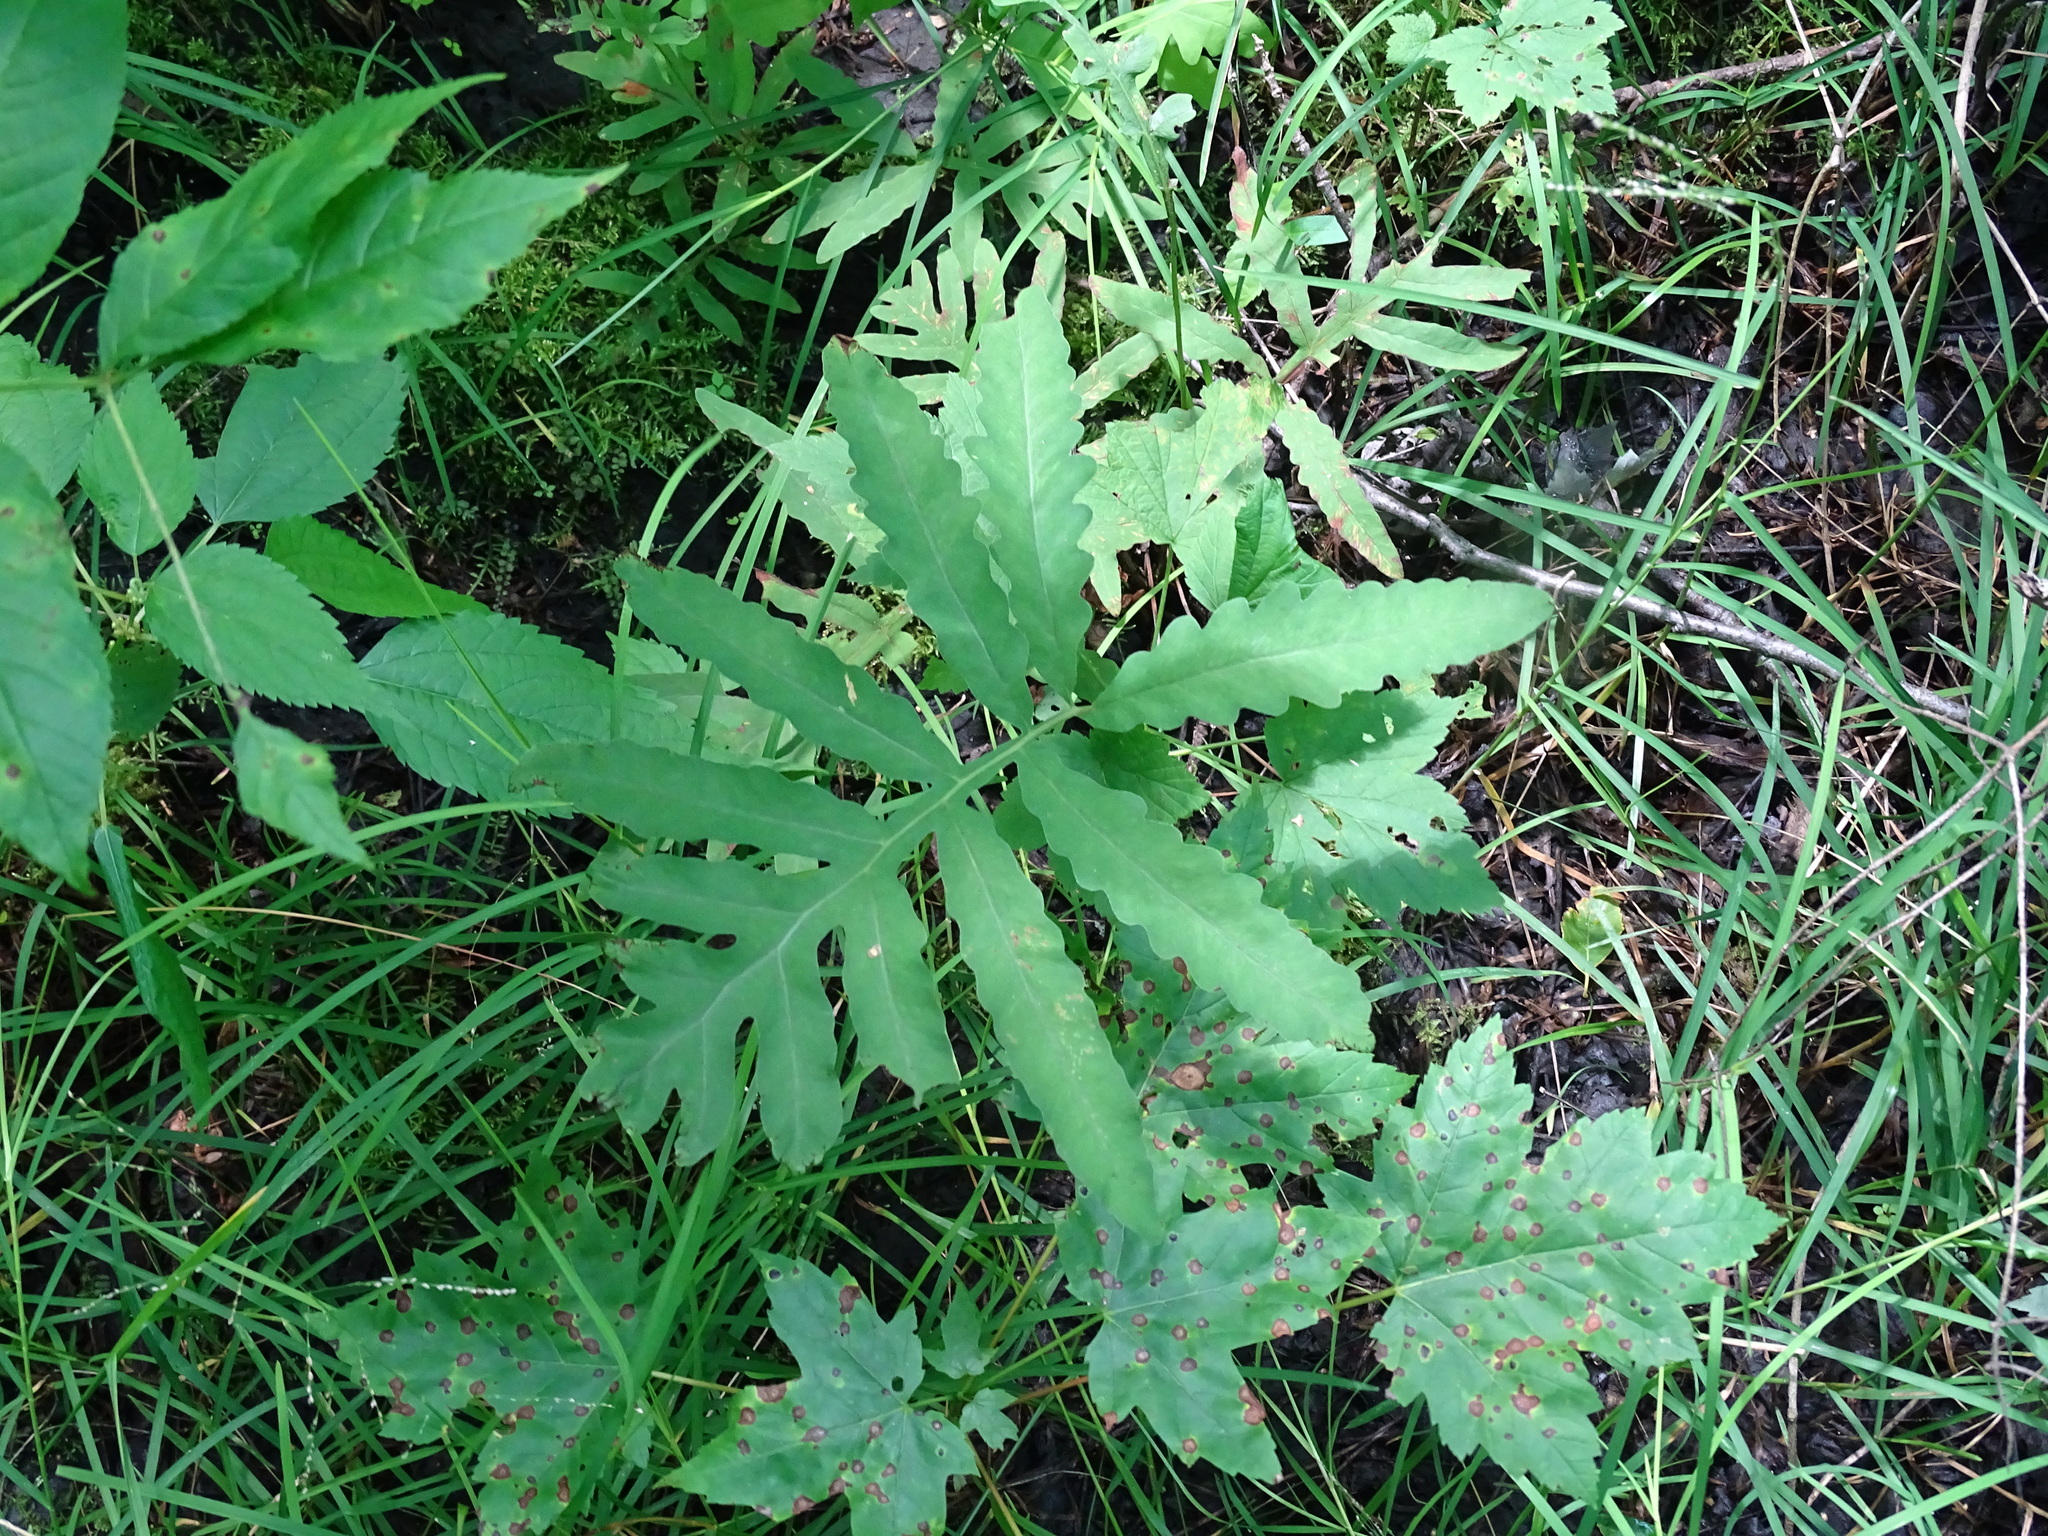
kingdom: Plantae
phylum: Tracheophyta
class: Polypodiopsida
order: Polypodiales
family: Onocleaceae
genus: Onoclea
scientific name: Onoclea sensibilis
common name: Sensitive fern
